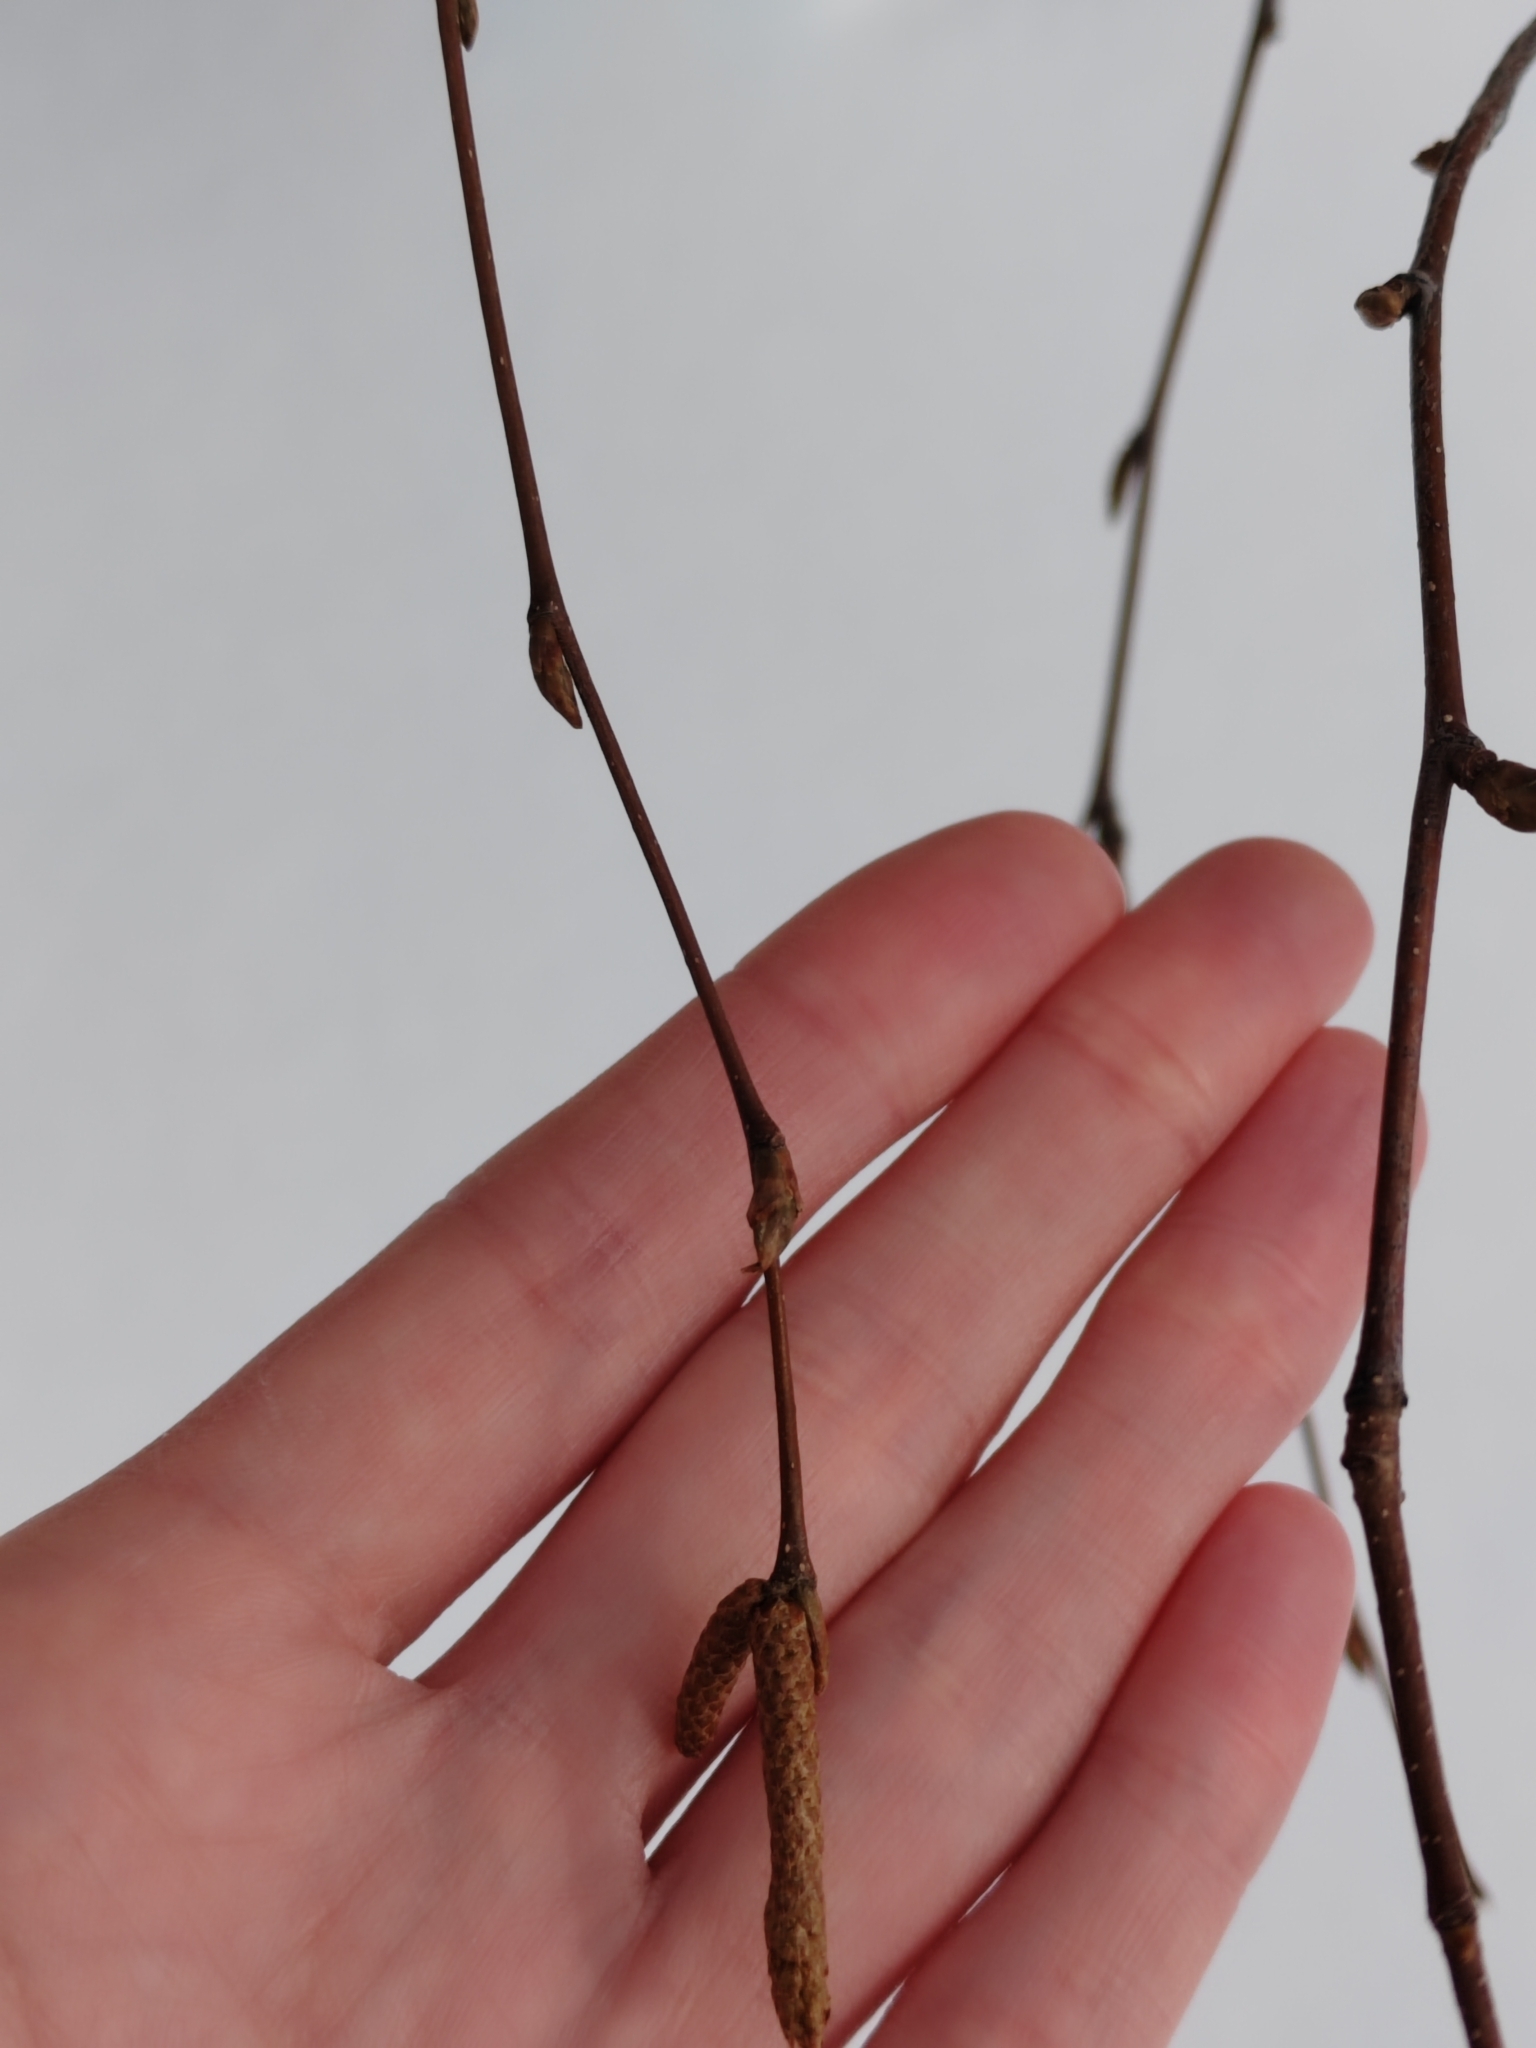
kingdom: Plantae
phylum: Tracheophyta
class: Magnoliopsida
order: Fagales
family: Betulaceae
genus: Betula
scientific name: Betula pendula
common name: Silver birch
